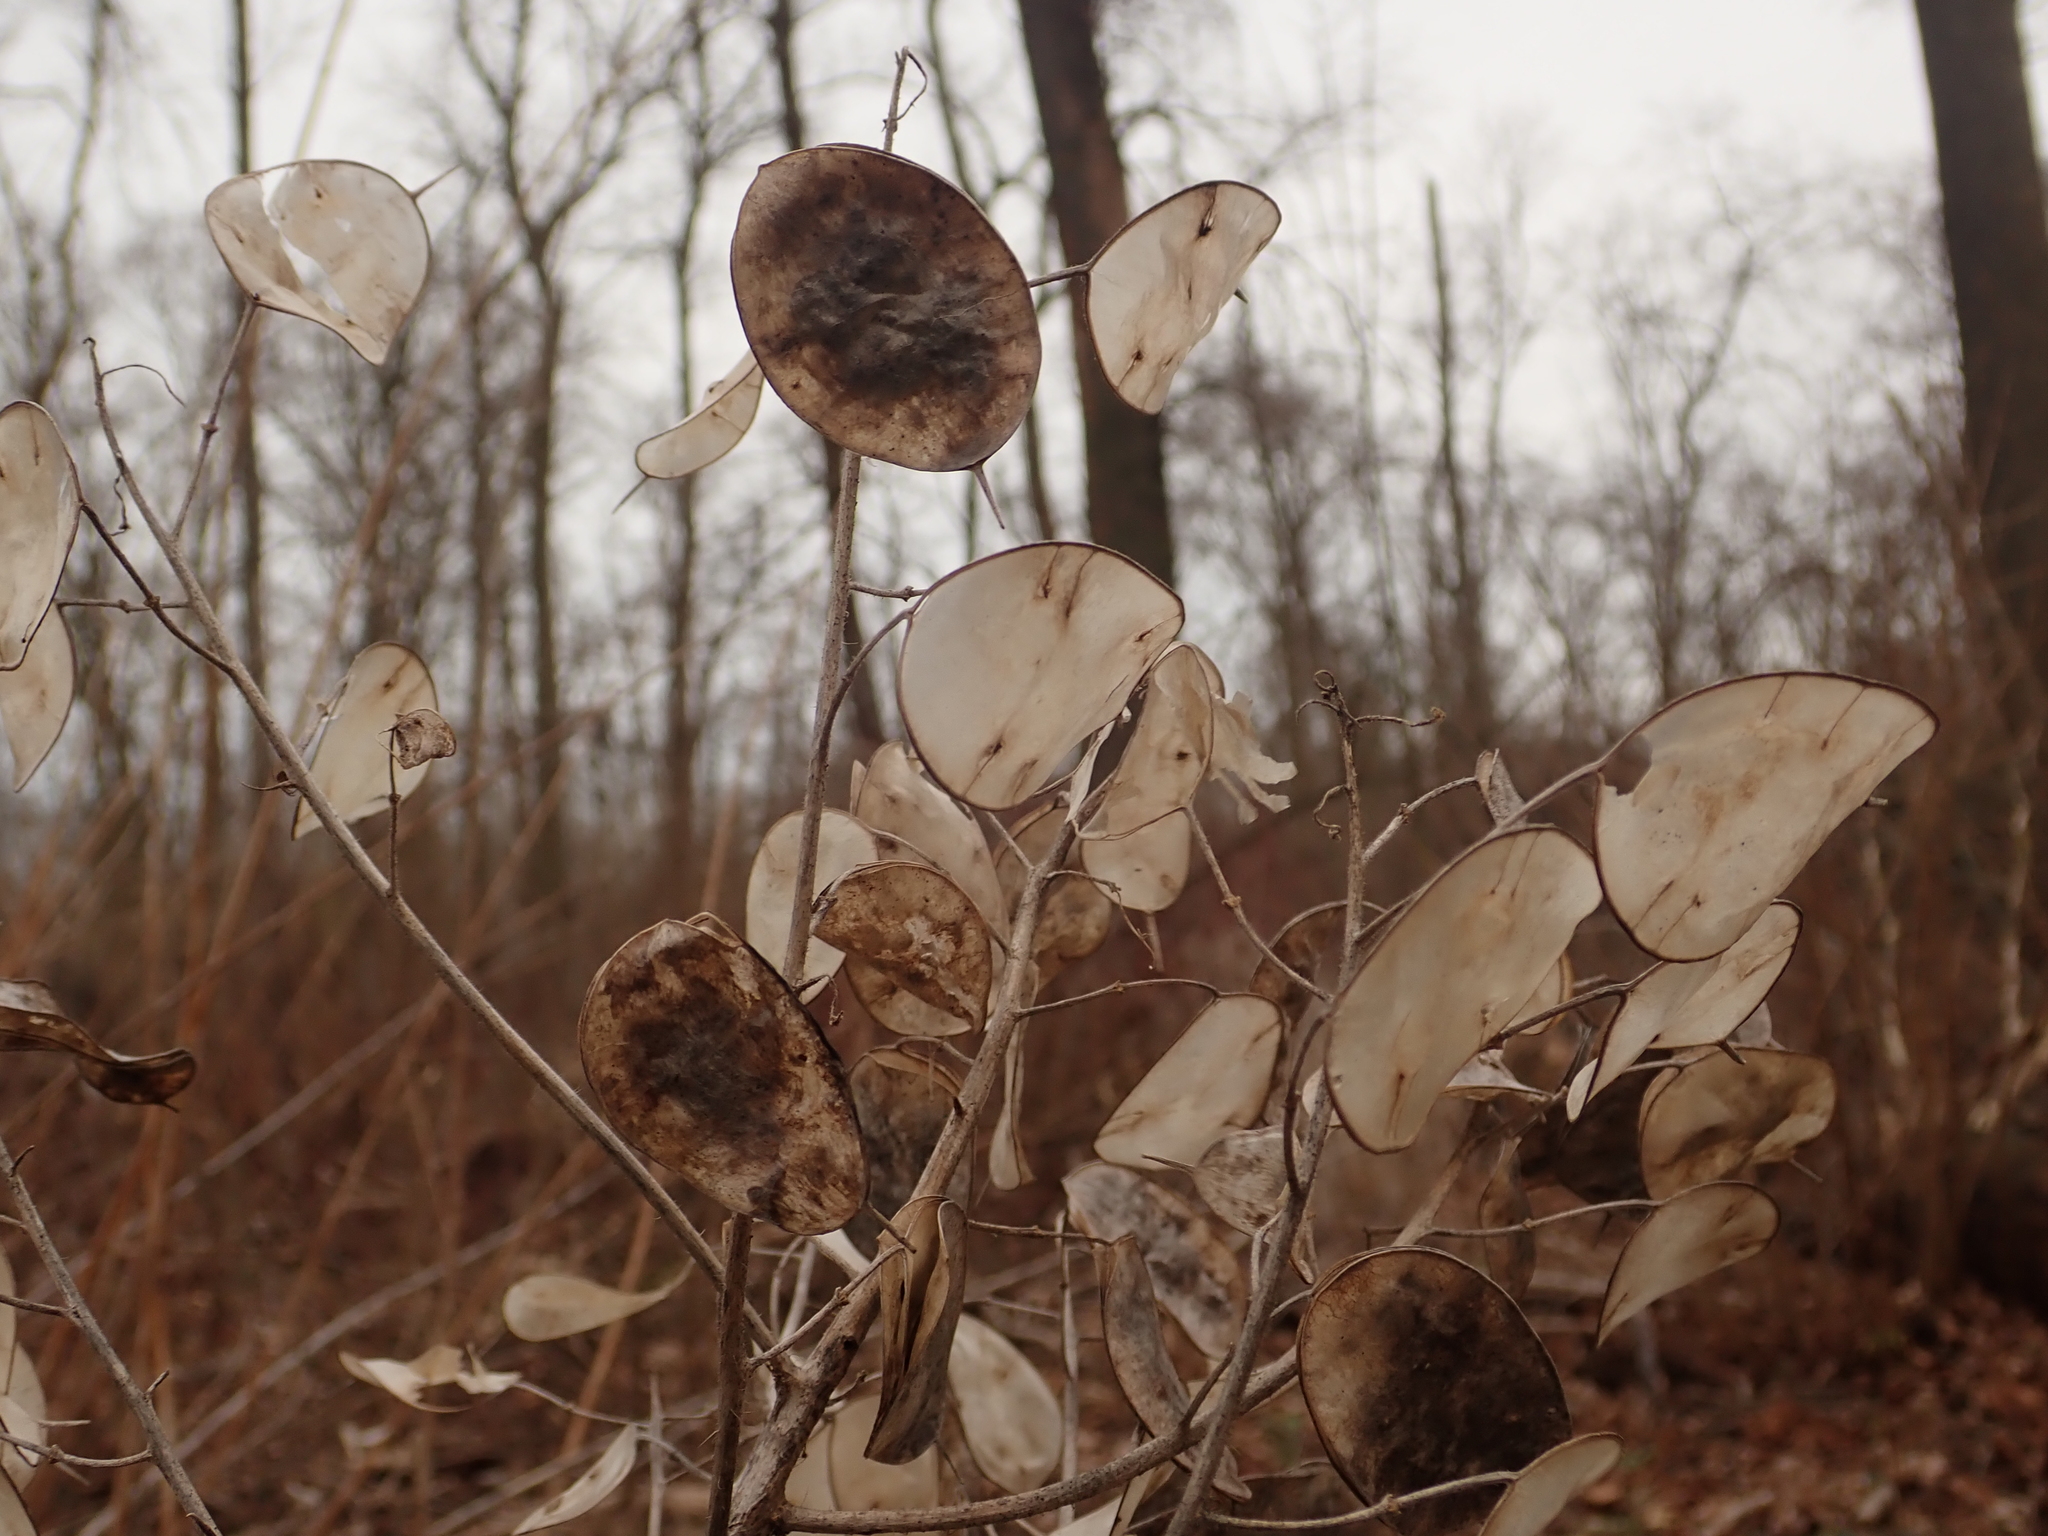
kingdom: Plantae
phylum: Tracheophyta
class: Magnoliopsida
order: Brassicales
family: Brassicaceae
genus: Lunaria
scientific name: Lunaria annua
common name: Honesty
